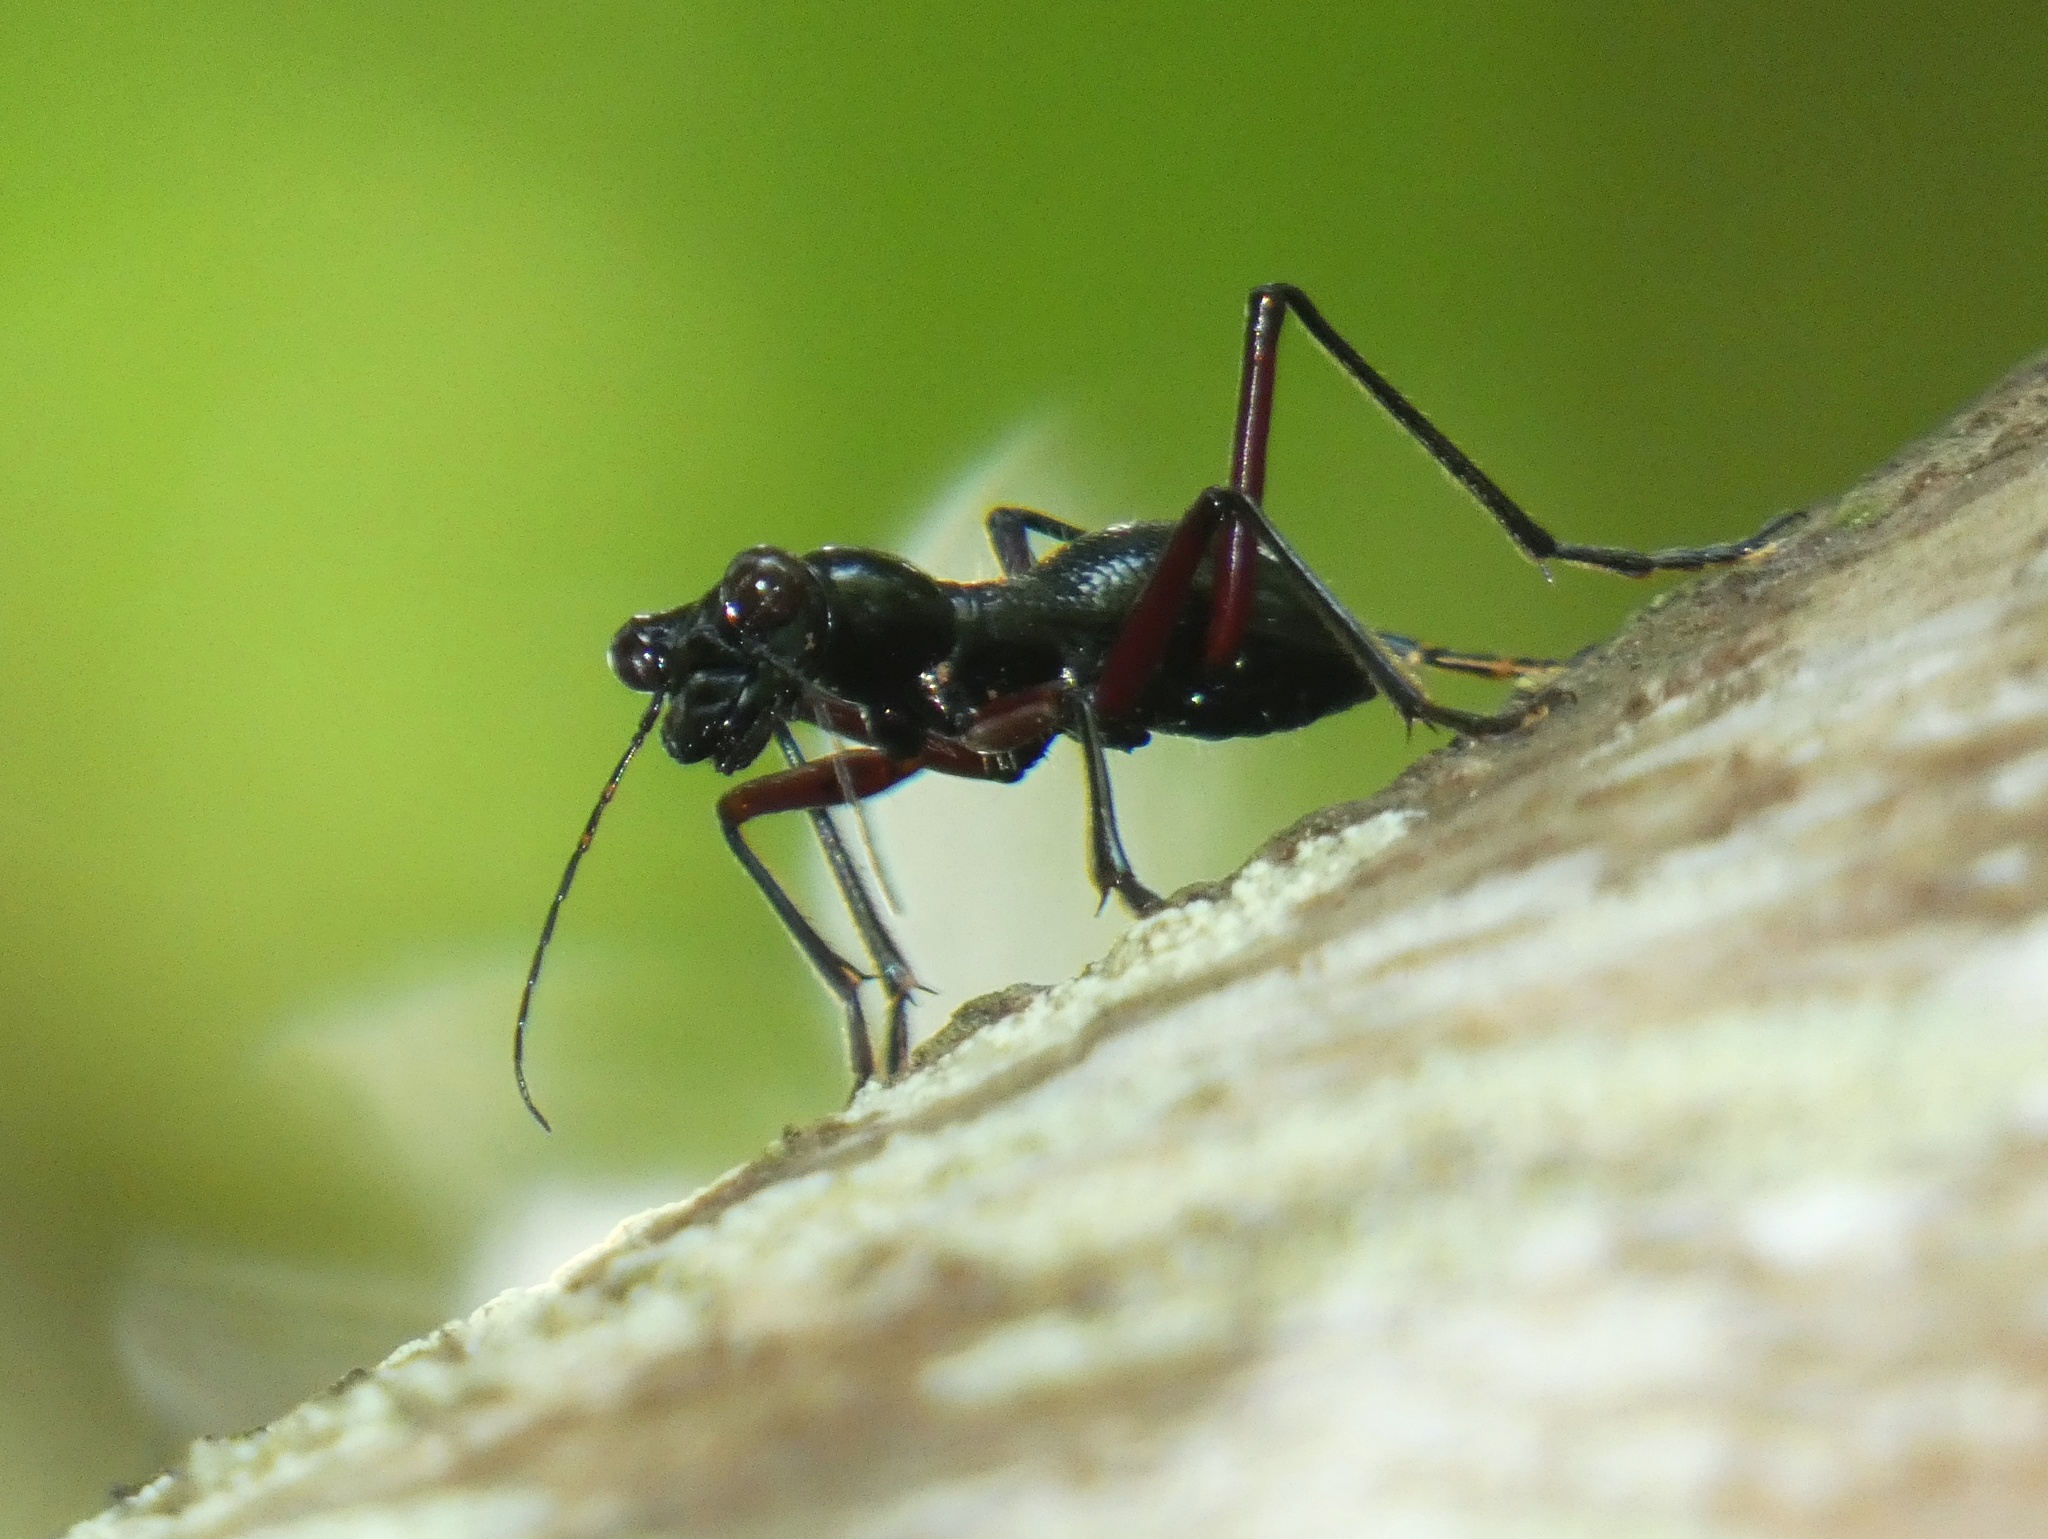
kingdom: Animalia
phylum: Arthropoda
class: Insecta
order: Coleoptera
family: Carabidae
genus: Tricondyla
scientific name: Tricondyla aptera
